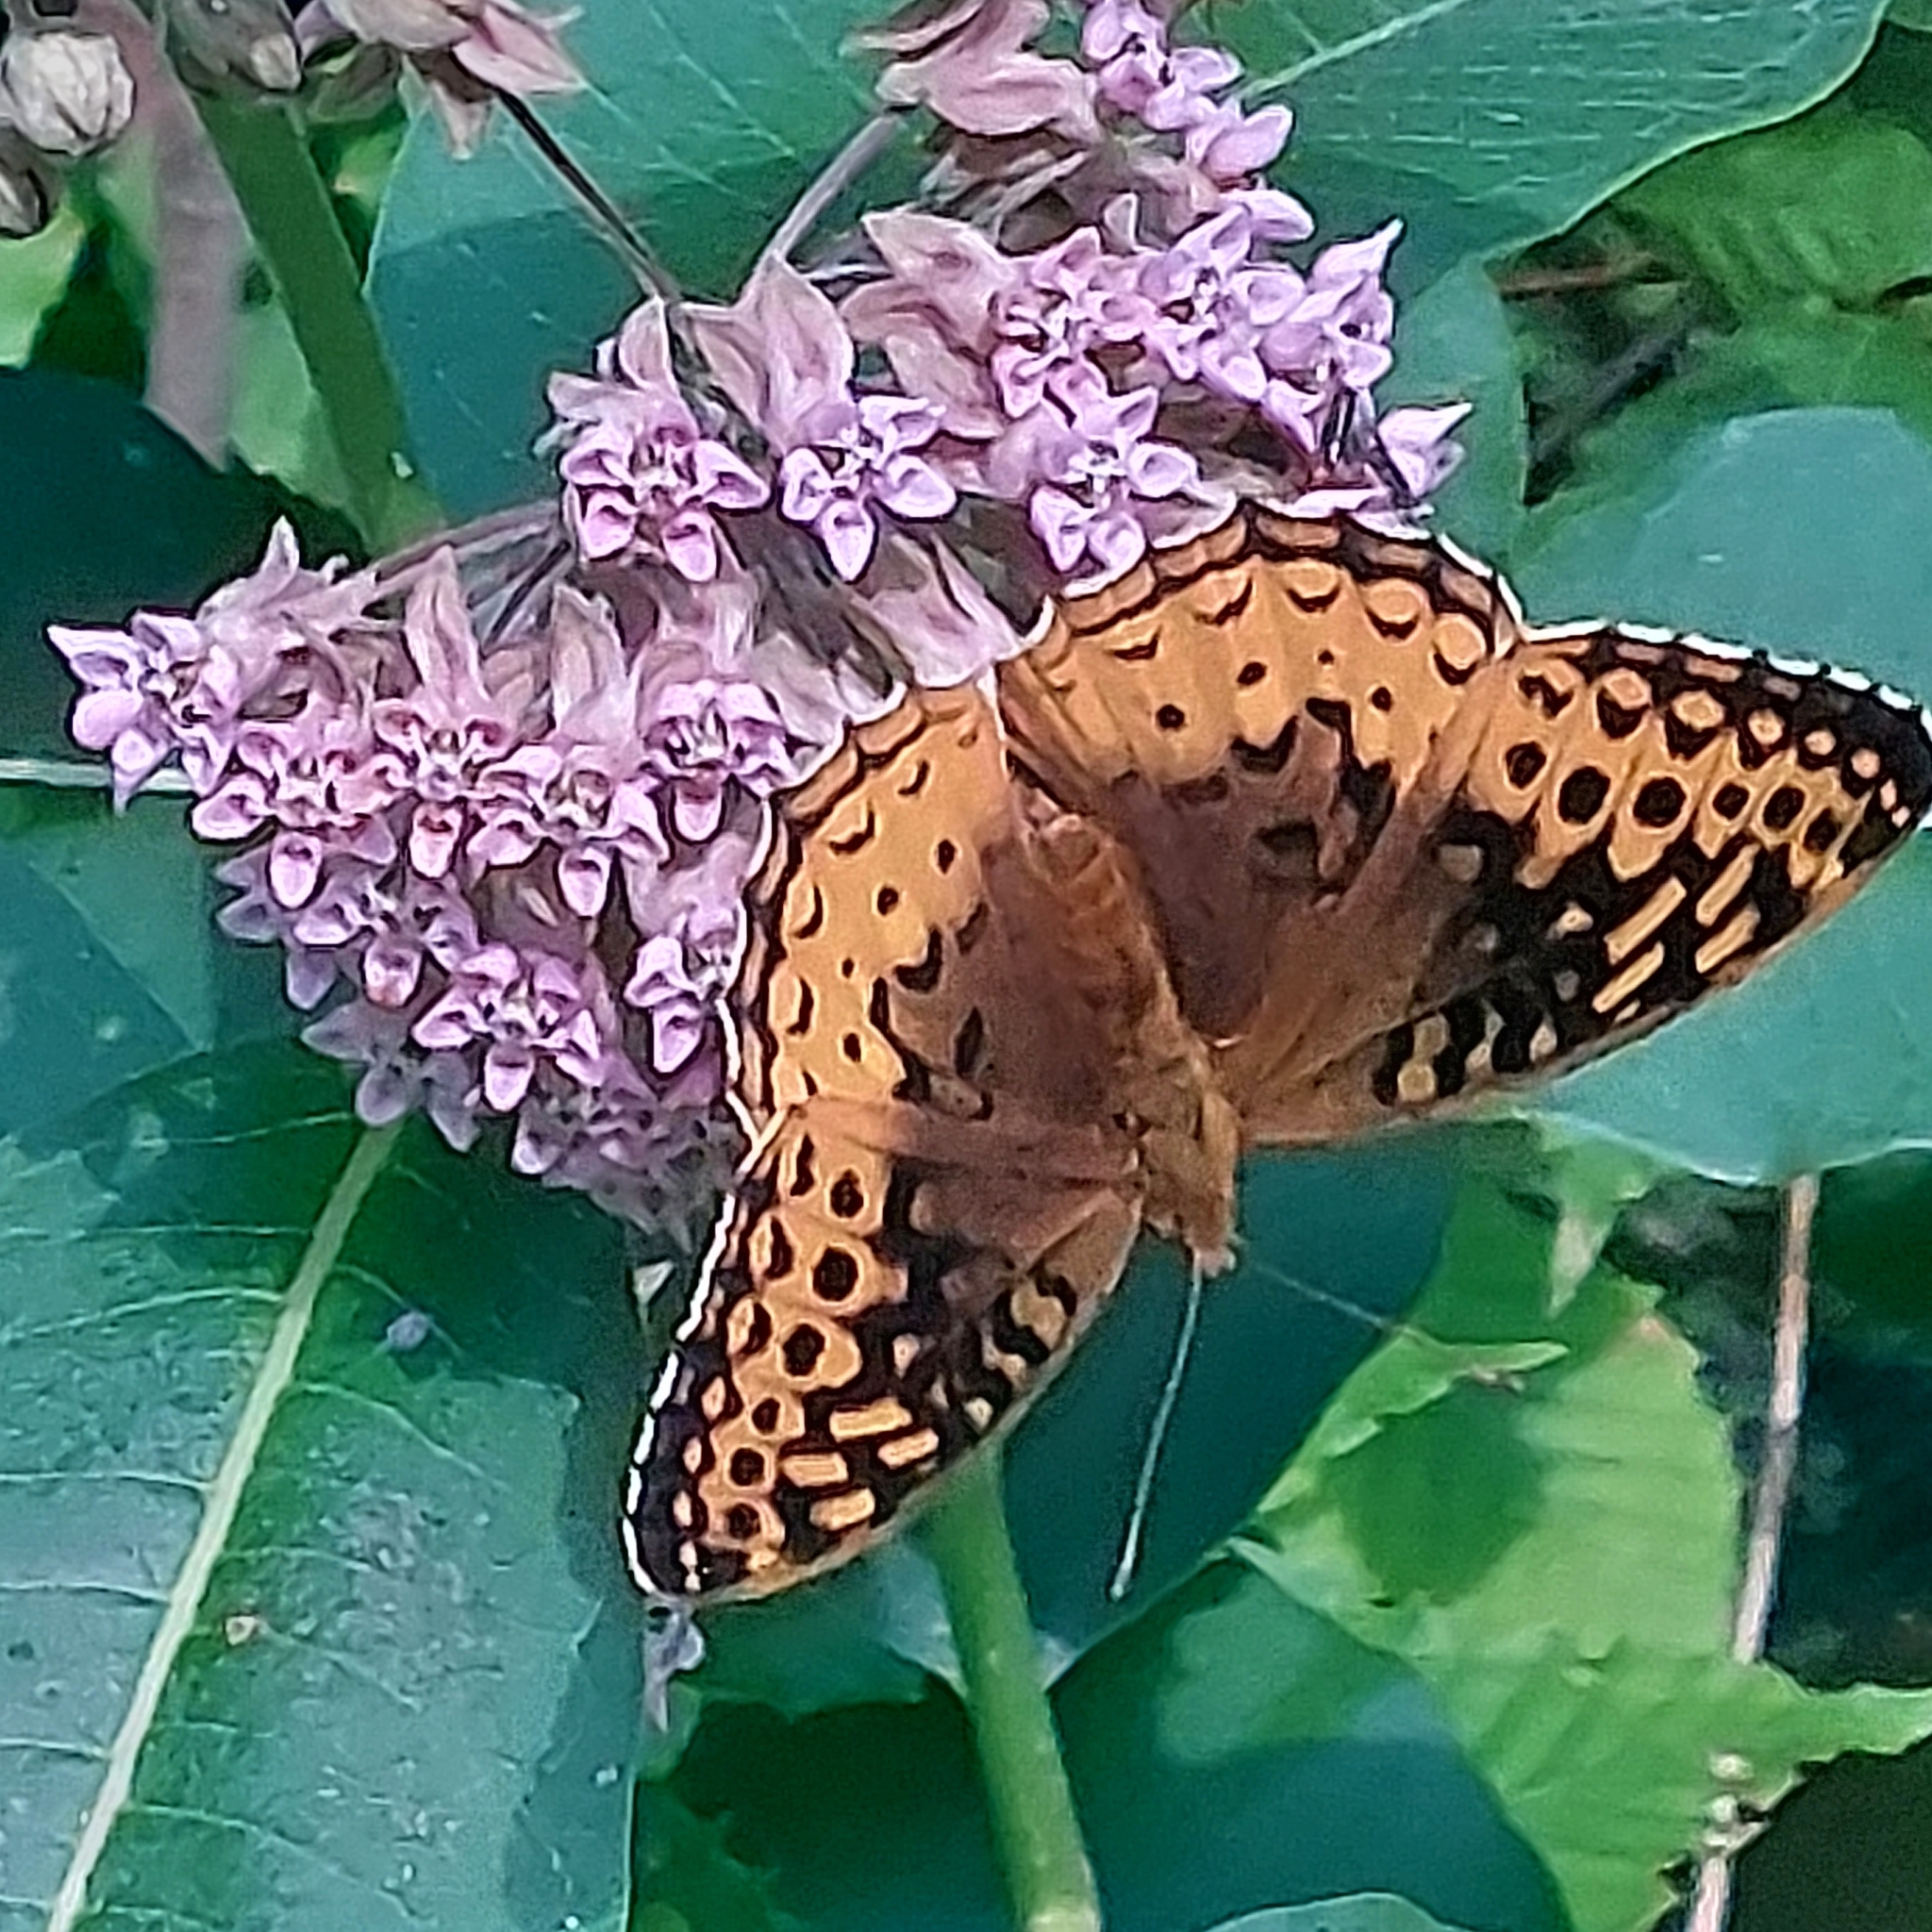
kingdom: Animalia
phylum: Arthropoda
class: Insecta
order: Lepidoptera
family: Nymphalidae
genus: Speyeria
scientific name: Speyeria cybele
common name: Great spangled fritillary
